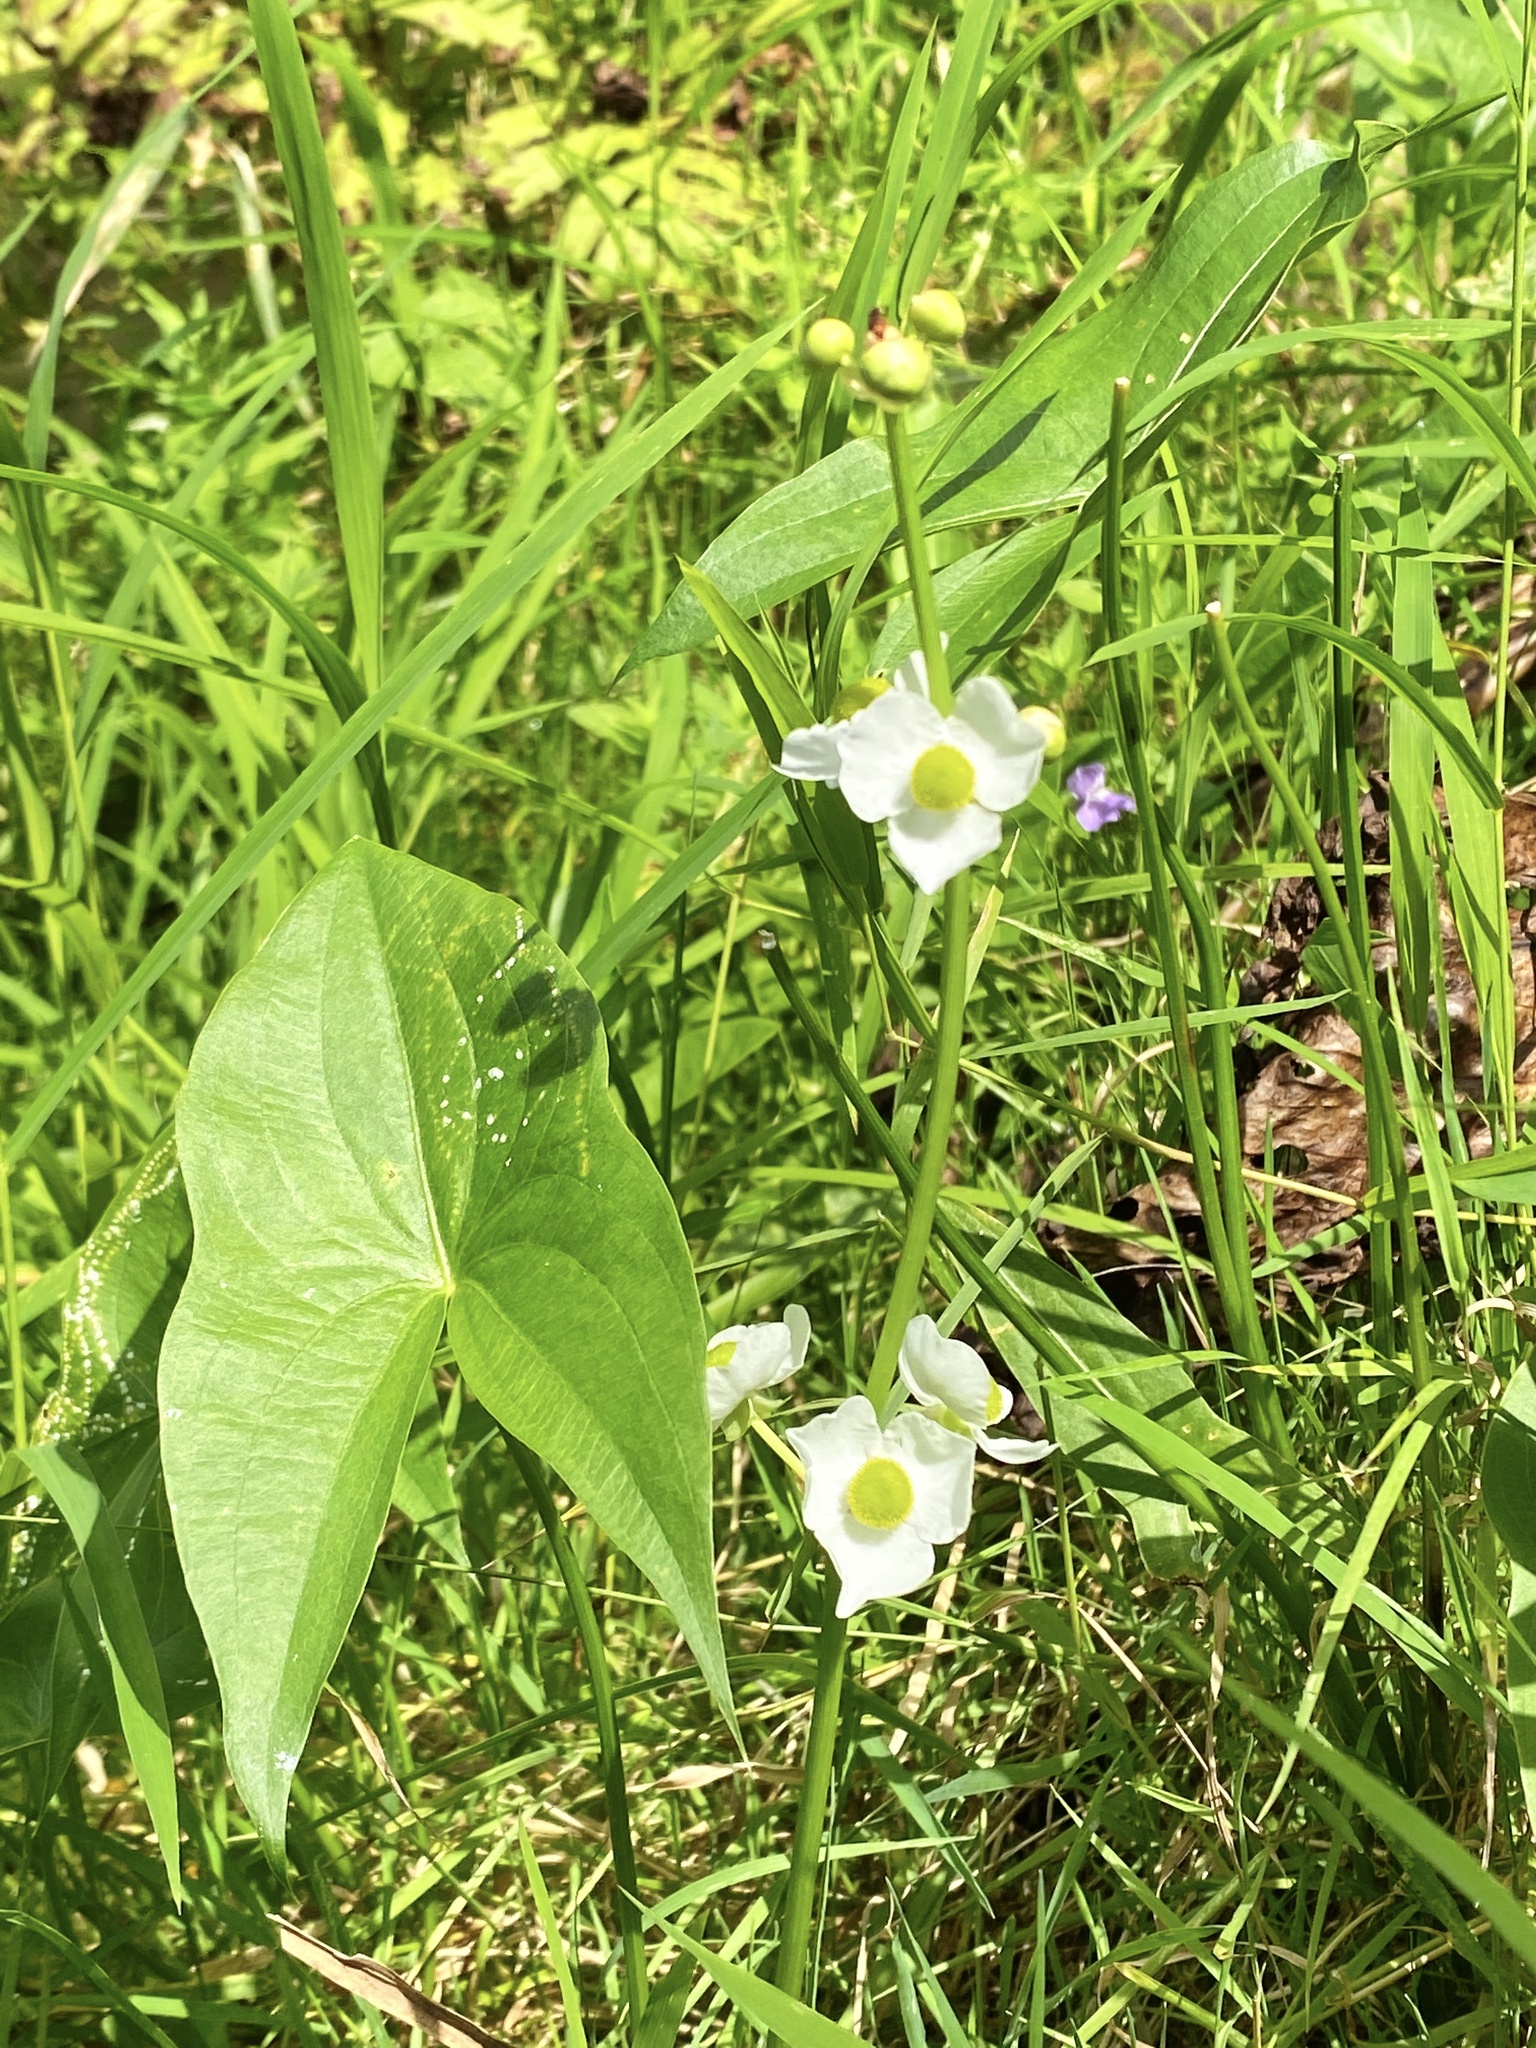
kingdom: Plantae
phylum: Tracheophyta
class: Liliopsida
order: Alismatales
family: Alismataceae
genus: Sagittaria
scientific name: Sagittaria latifolia
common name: Duck-potato
